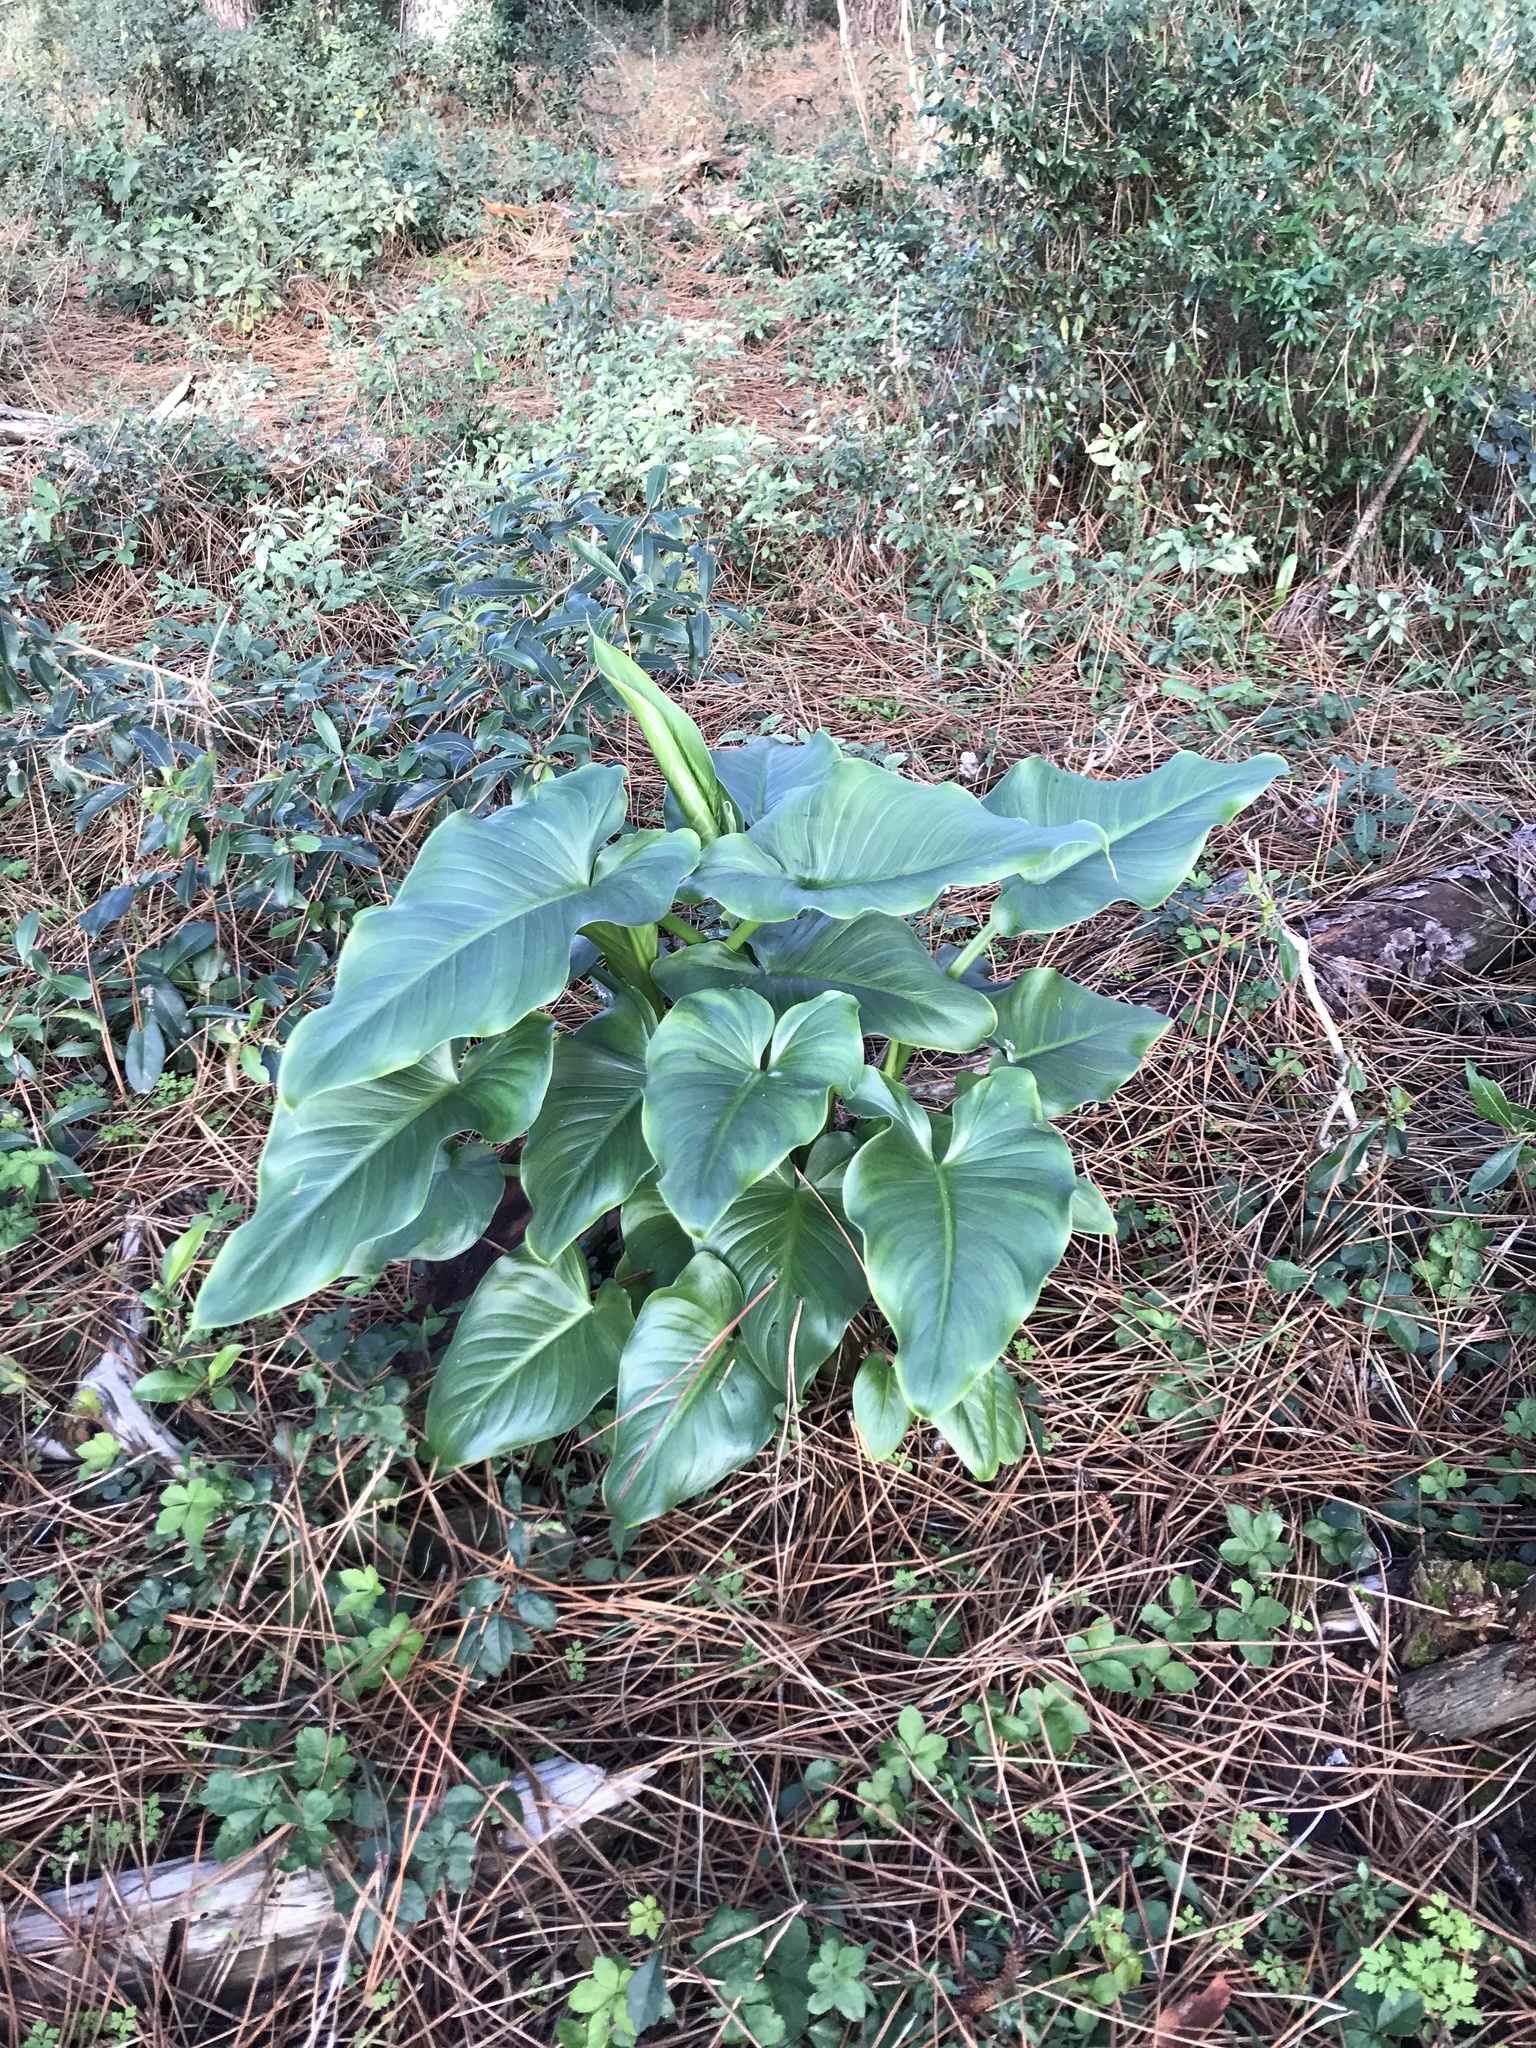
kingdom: Plantae
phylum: Tracheophyta
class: Liliopsida
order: Alismatales
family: Araceae
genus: Zantedeschia
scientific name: Zantedeschia aethiopica
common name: Altar-lily
